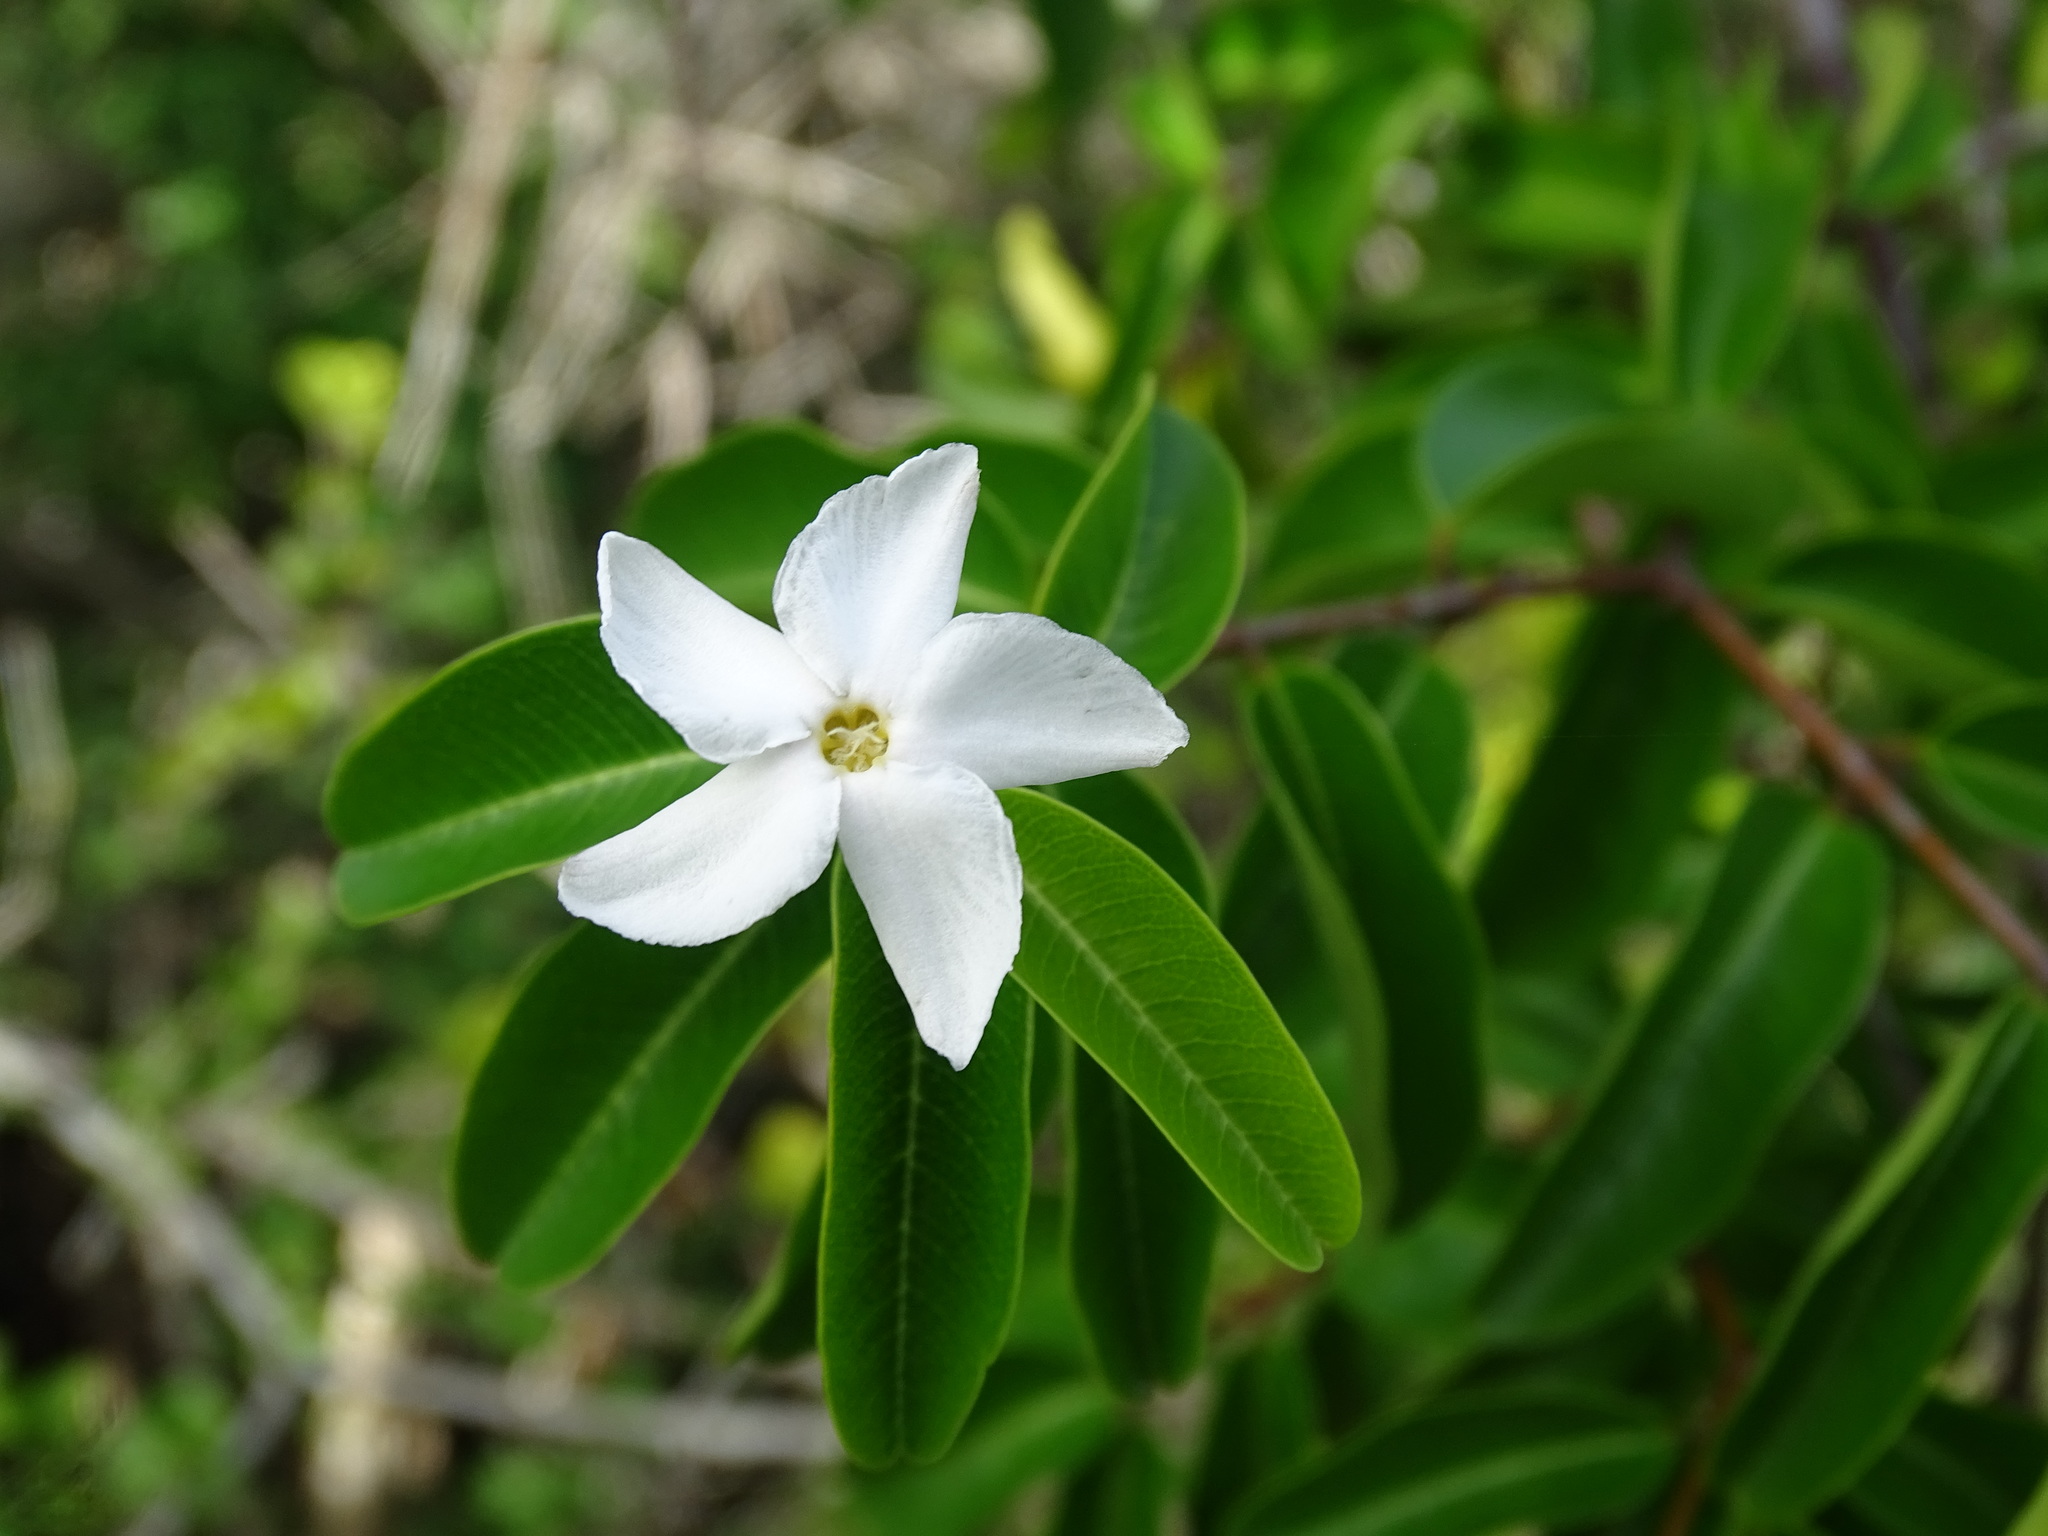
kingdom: Plantae
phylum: Tracheophyta
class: Magnoliopsida
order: Gentianales
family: Apocynaceae
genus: Cameraria
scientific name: Cameraria latifolia
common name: Savanna white poisonwood
